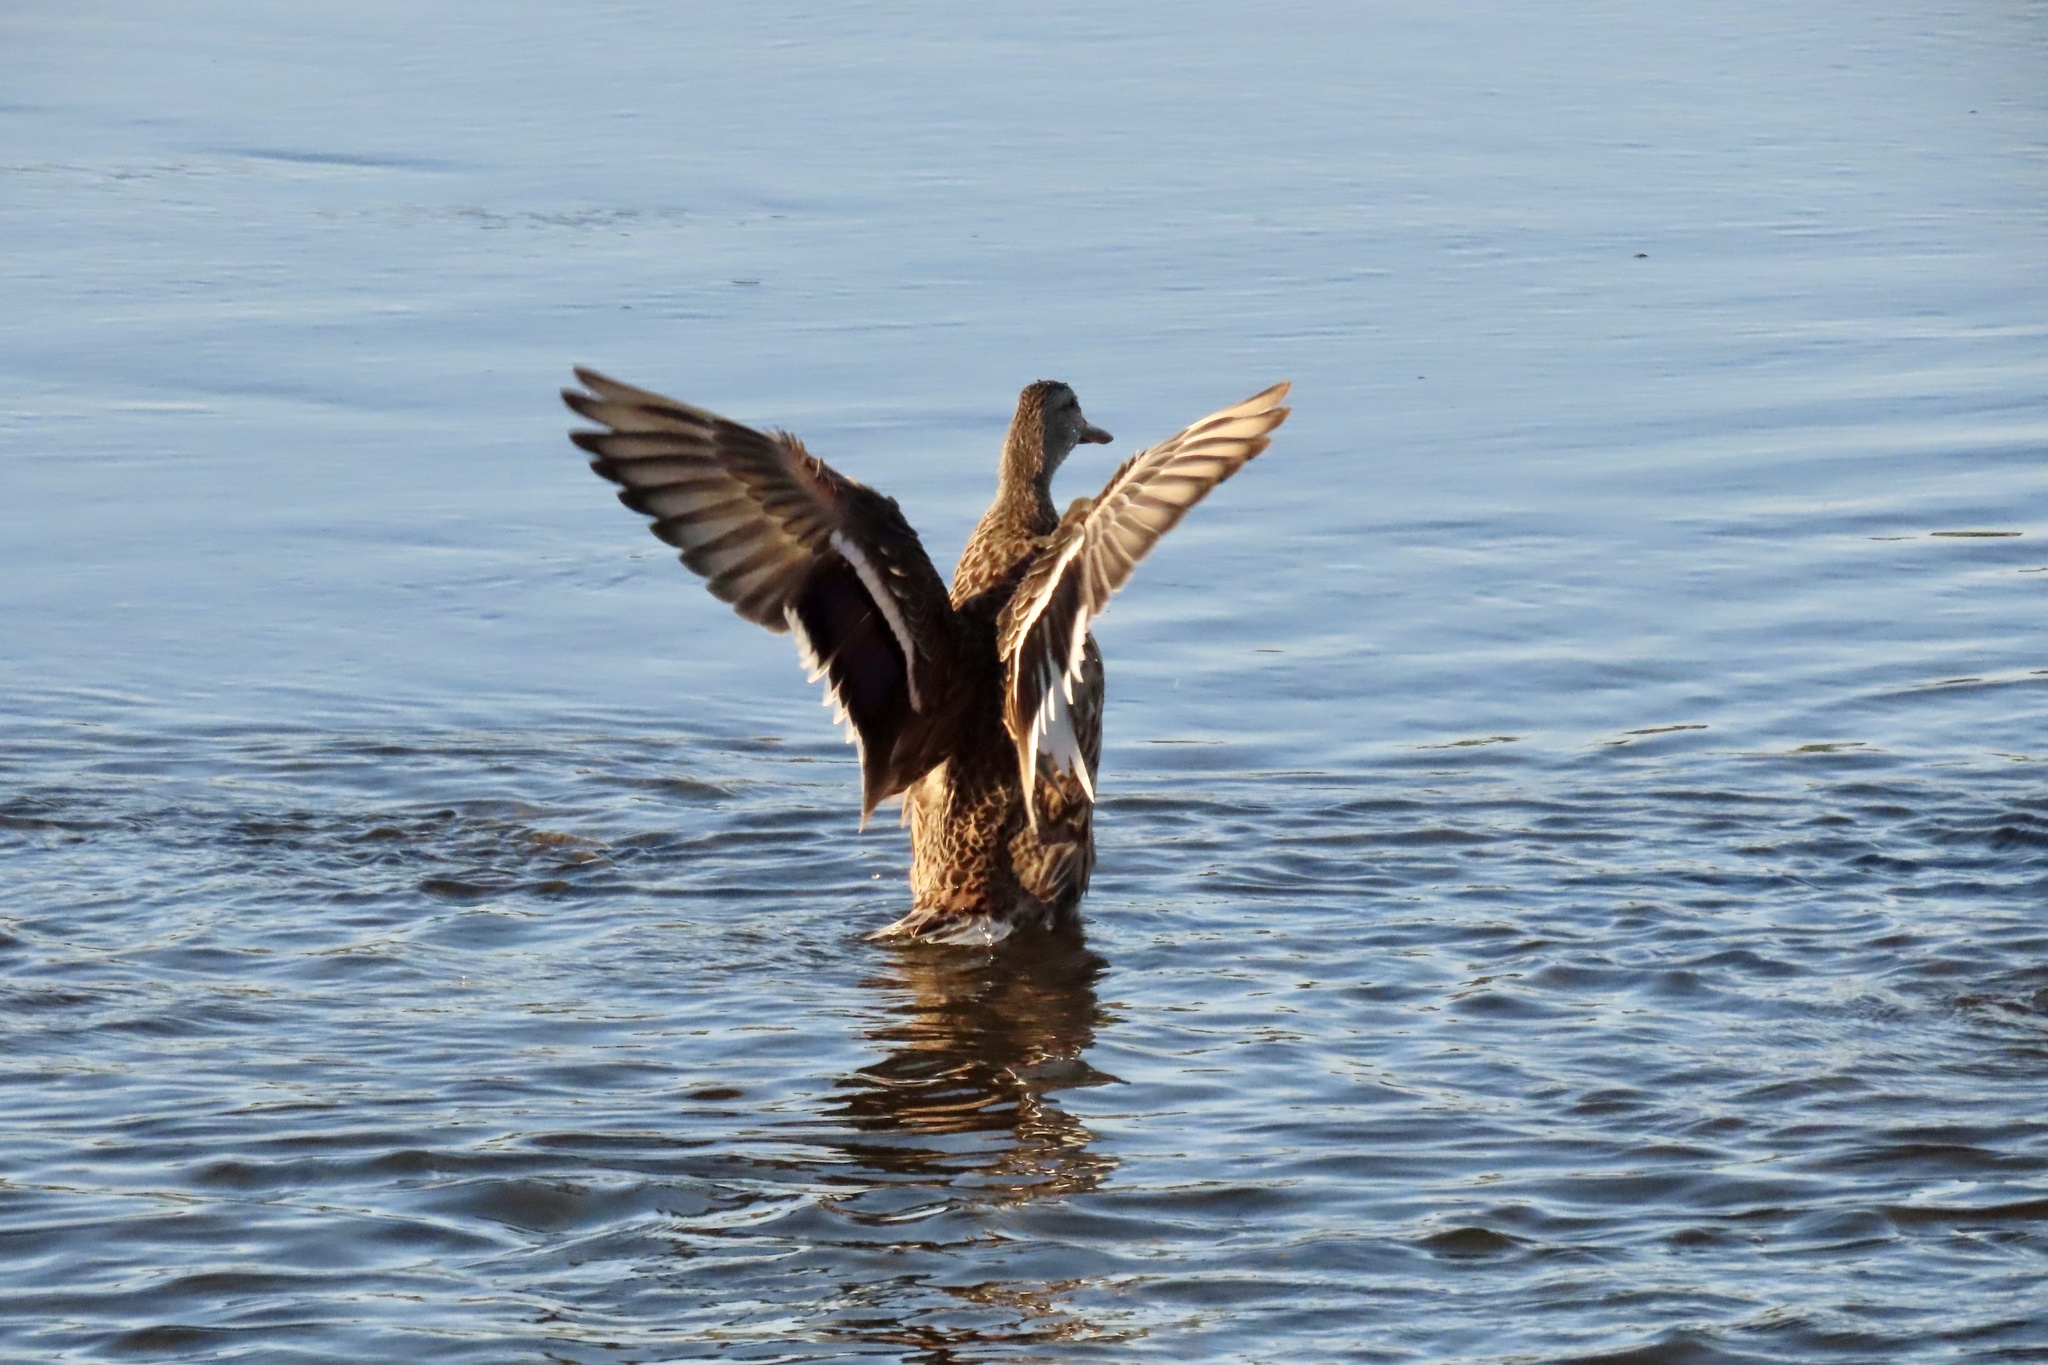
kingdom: Animalia
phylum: Chordata
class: Aves
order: Anseriformes
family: Anatidae
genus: Anas
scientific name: Anas platyrhynchos
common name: Mallard
